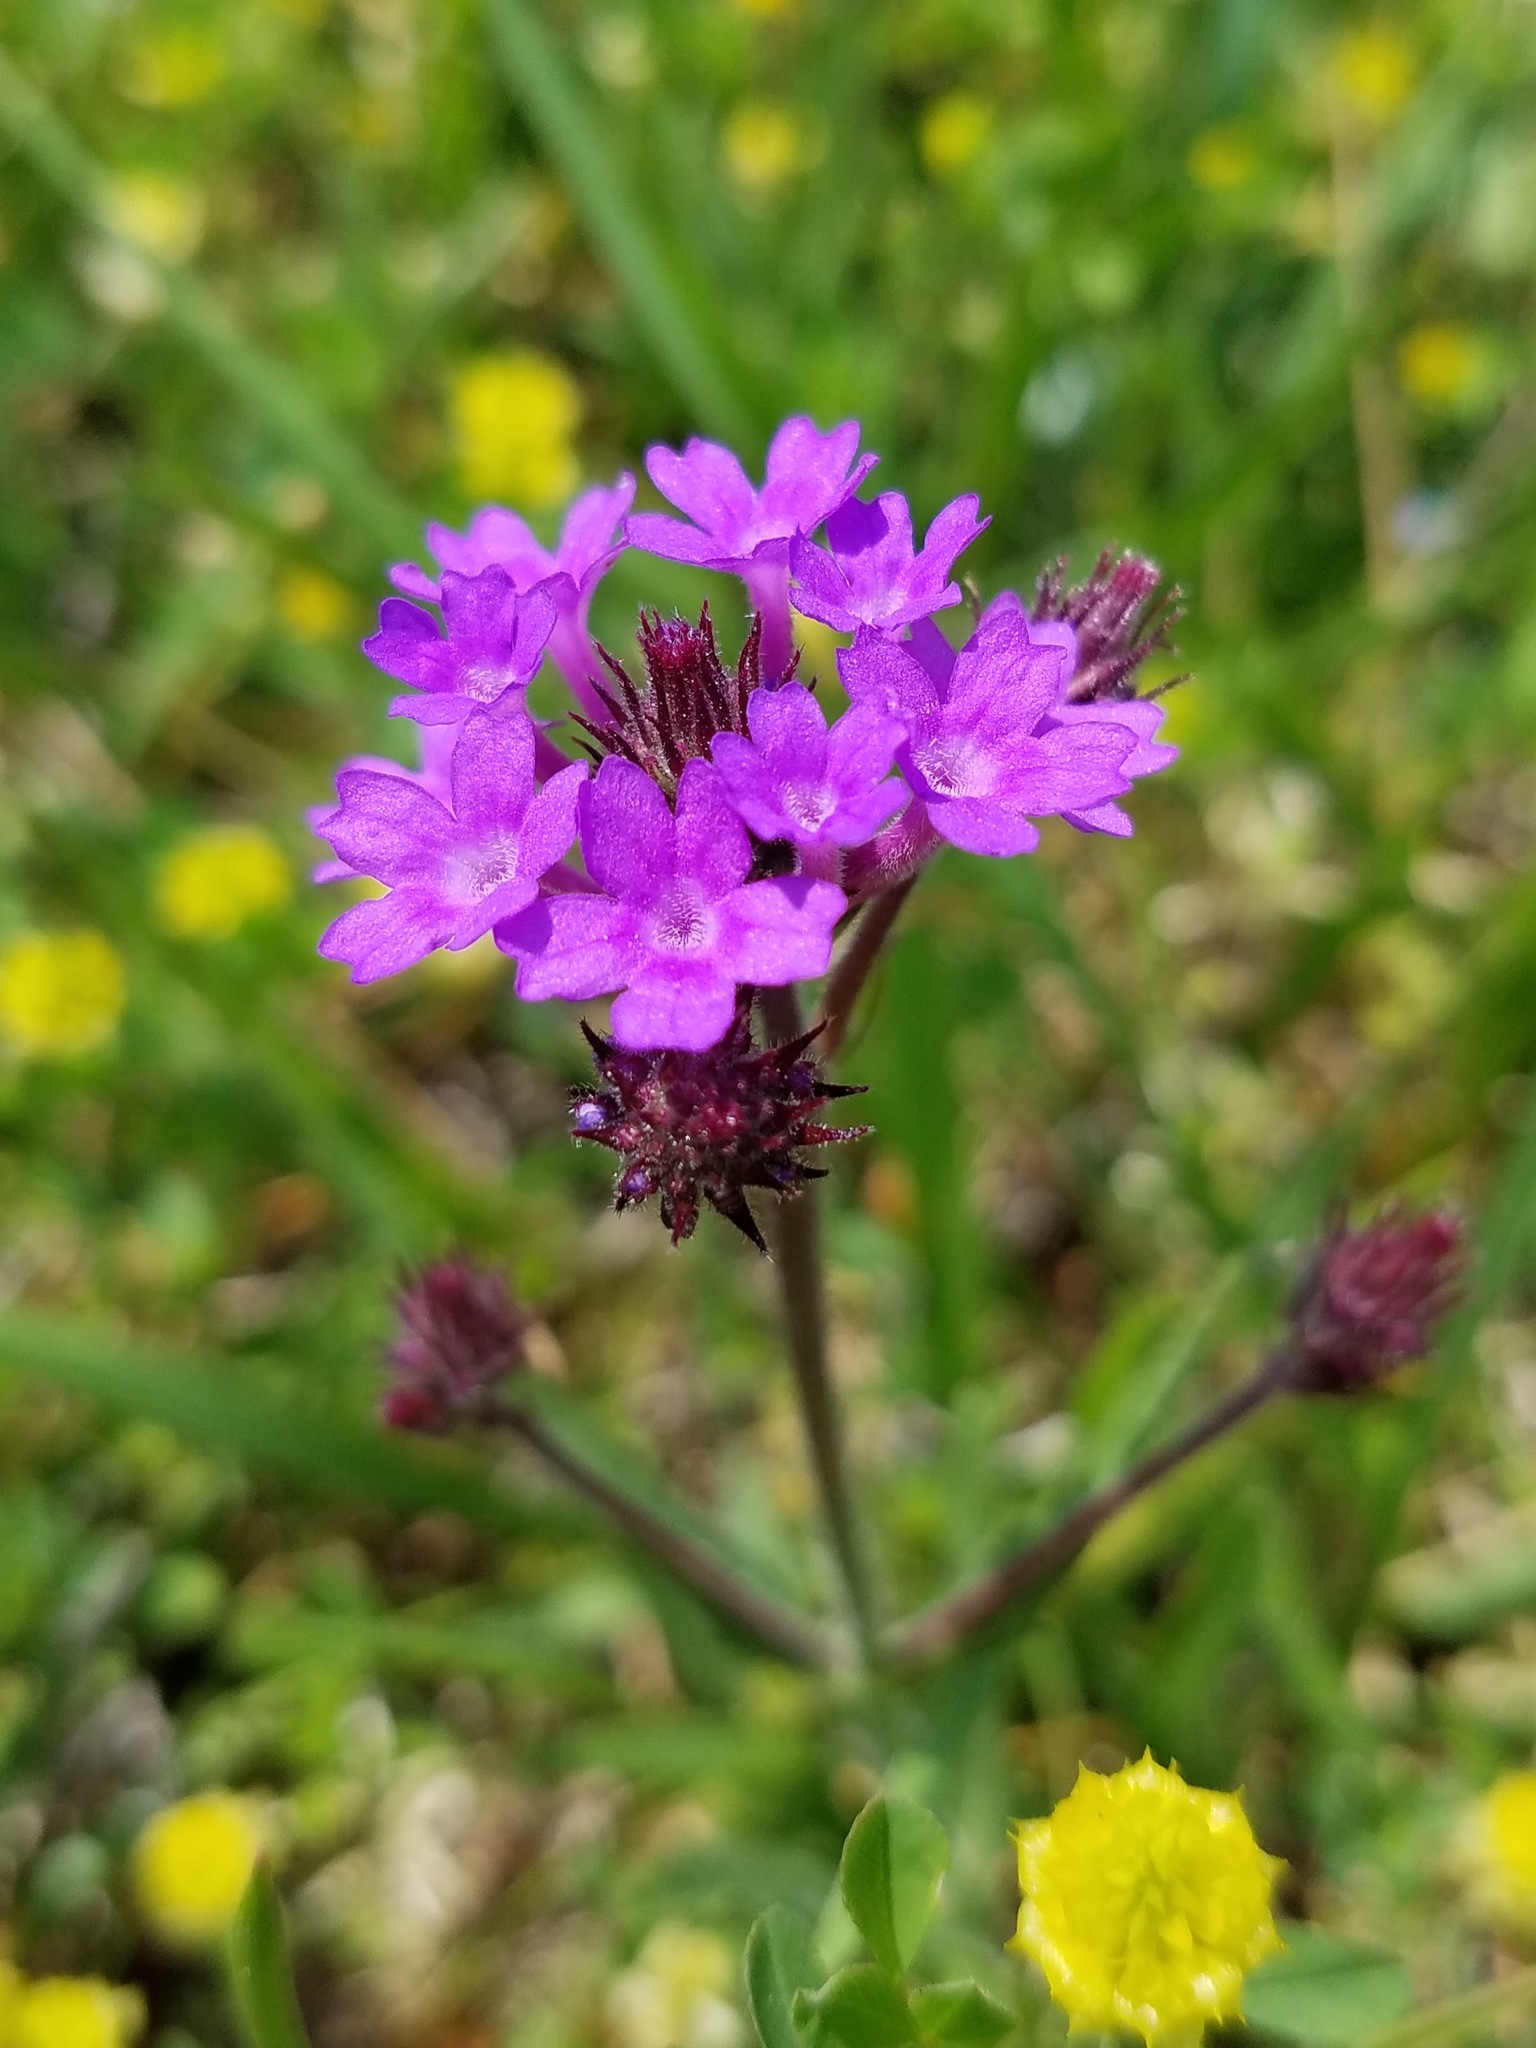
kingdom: Plantae
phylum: Tracheophyta
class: Magnoliopsida
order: Lamiales
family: Verbenaceae
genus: Verbena
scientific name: Verbena rigida
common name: Slender vervain
